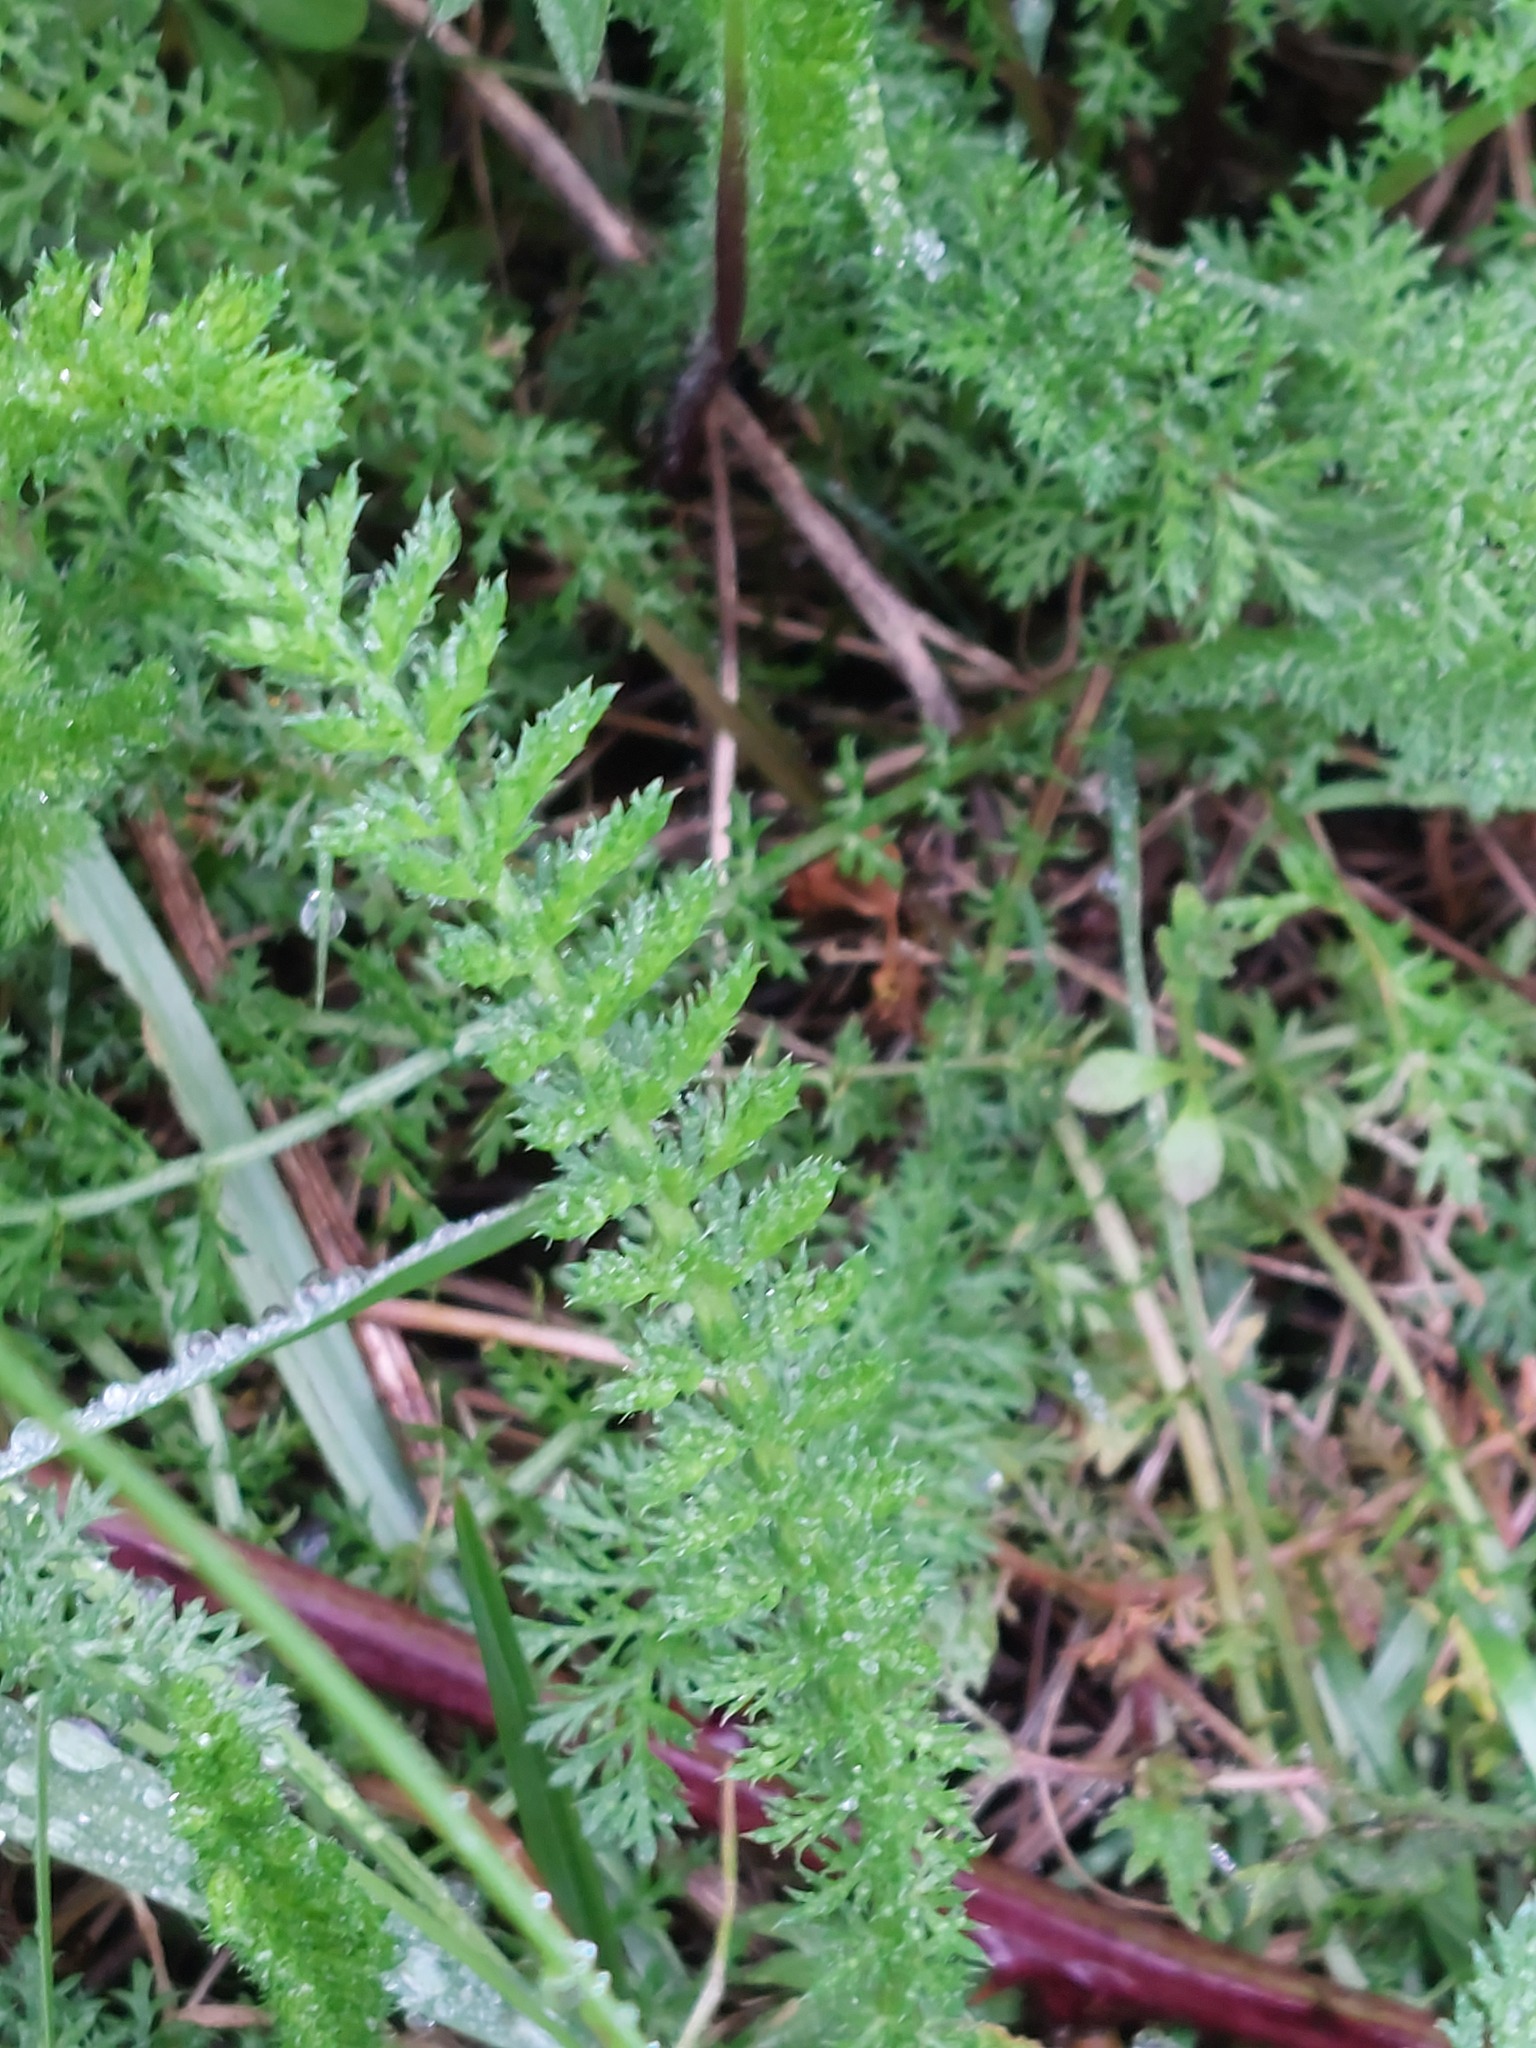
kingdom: Plantae
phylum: Tracheophyta
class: Magnoliopsida
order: Asterales
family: Asteraceae
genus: Achillea
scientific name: Achillea millefolium
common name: Yarrow
